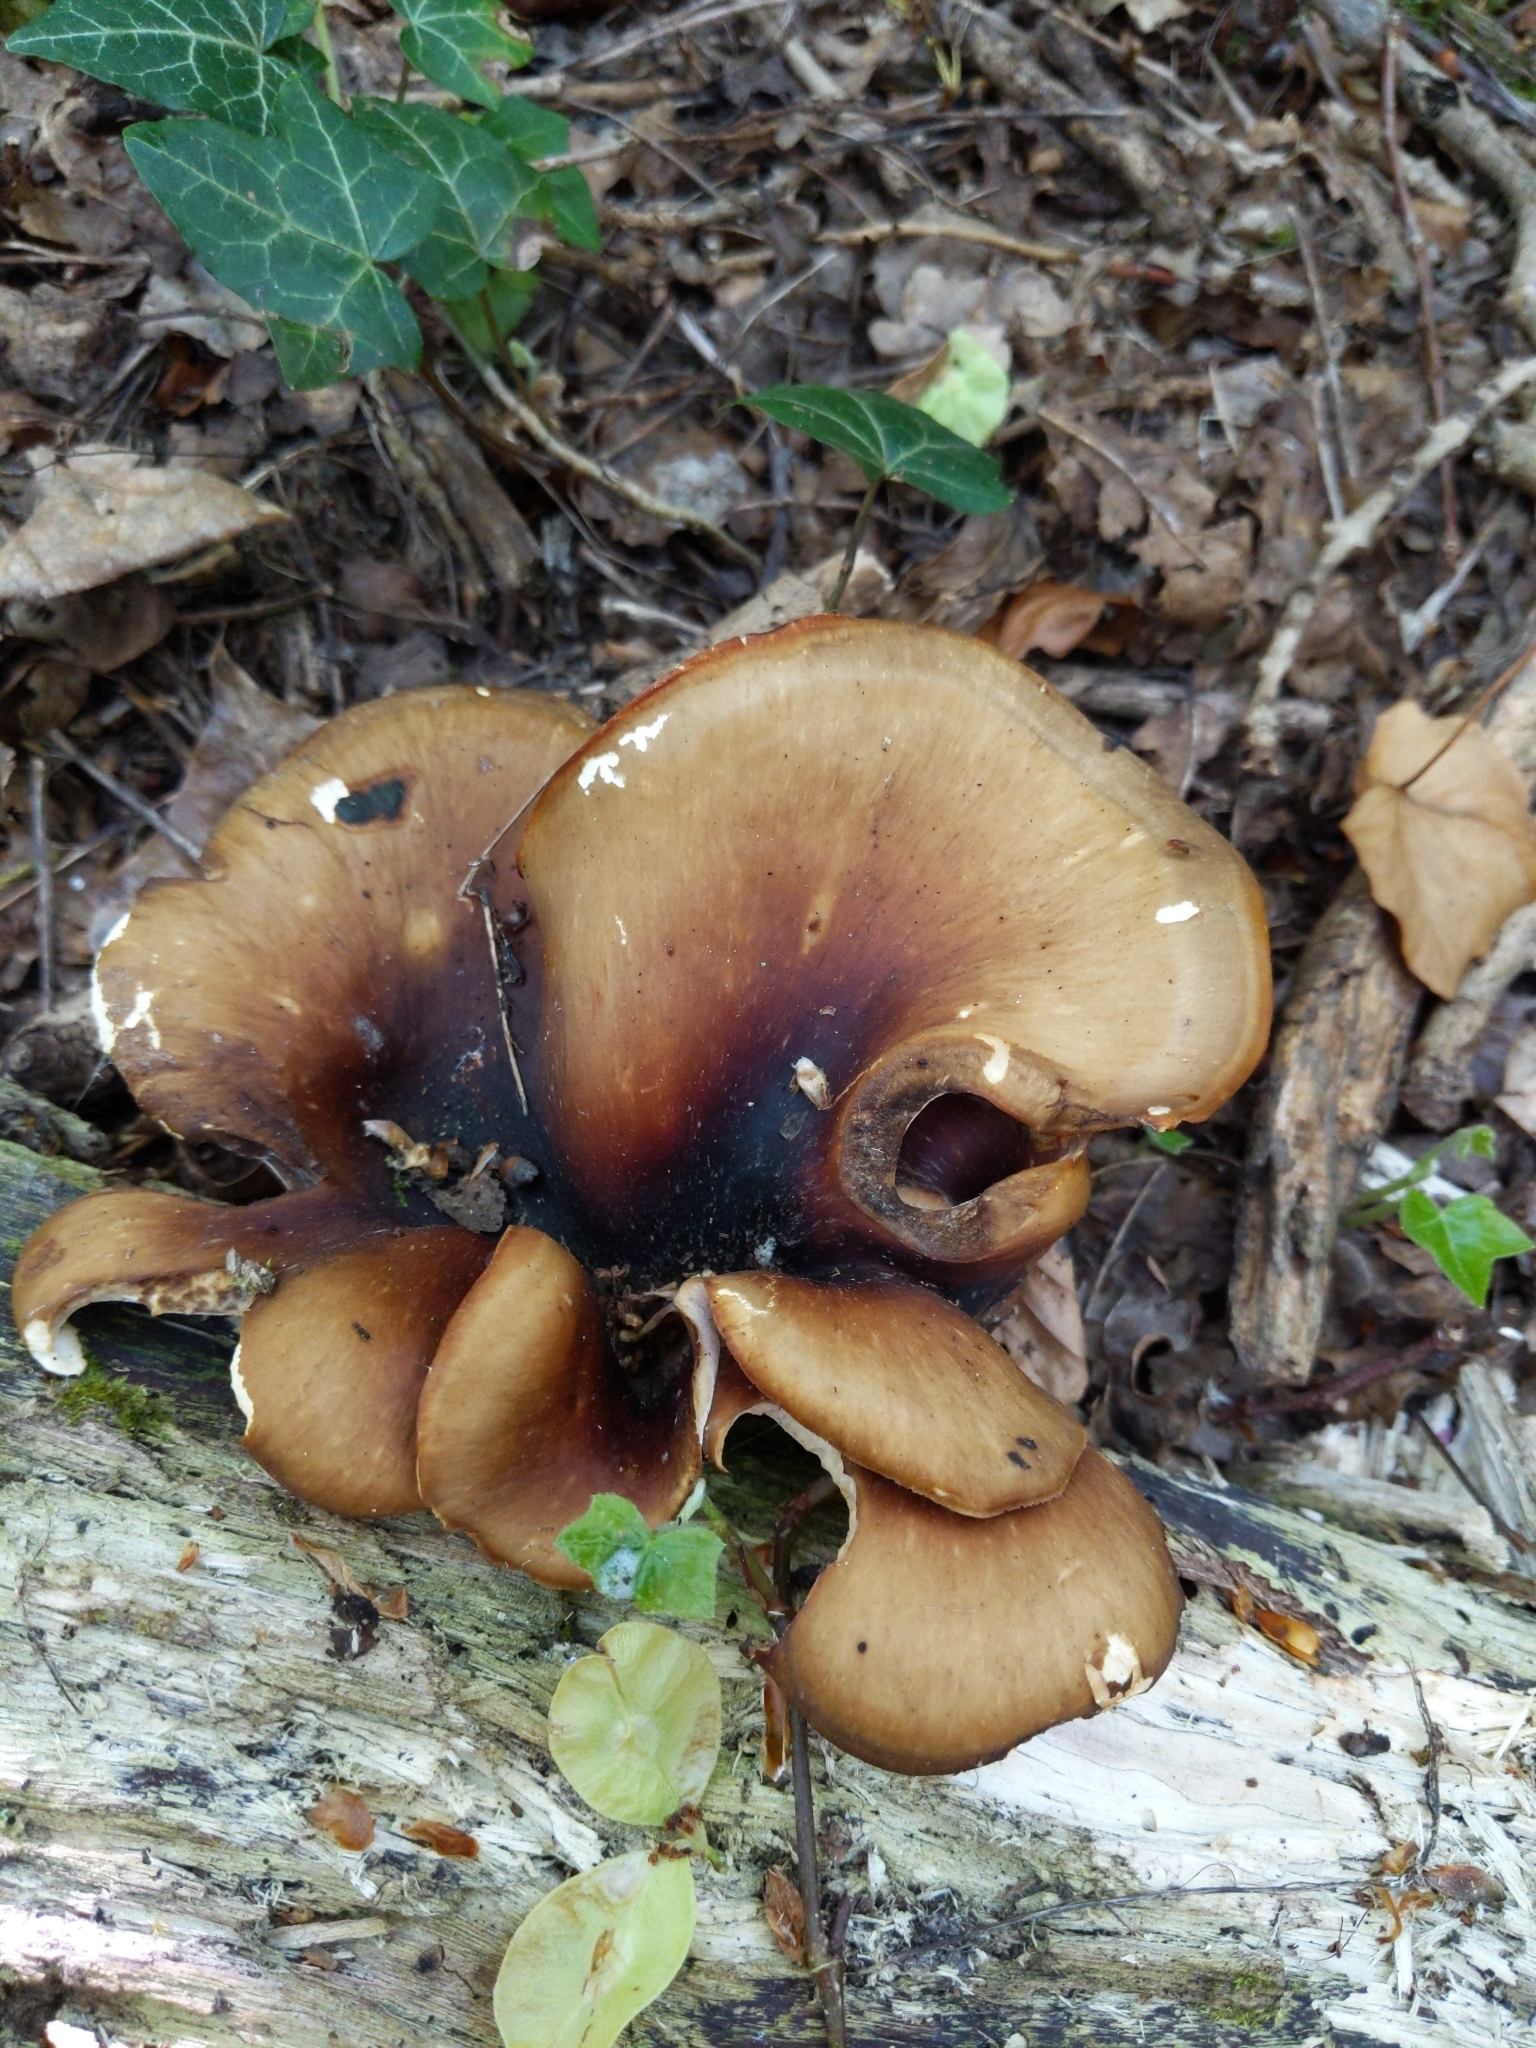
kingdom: Fungi
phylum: Basidiomycota
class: Agaricomycetes
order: Polyporales
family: Polyporaceae
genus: Picipes
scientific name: Picipes badius
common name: Bay polypore
